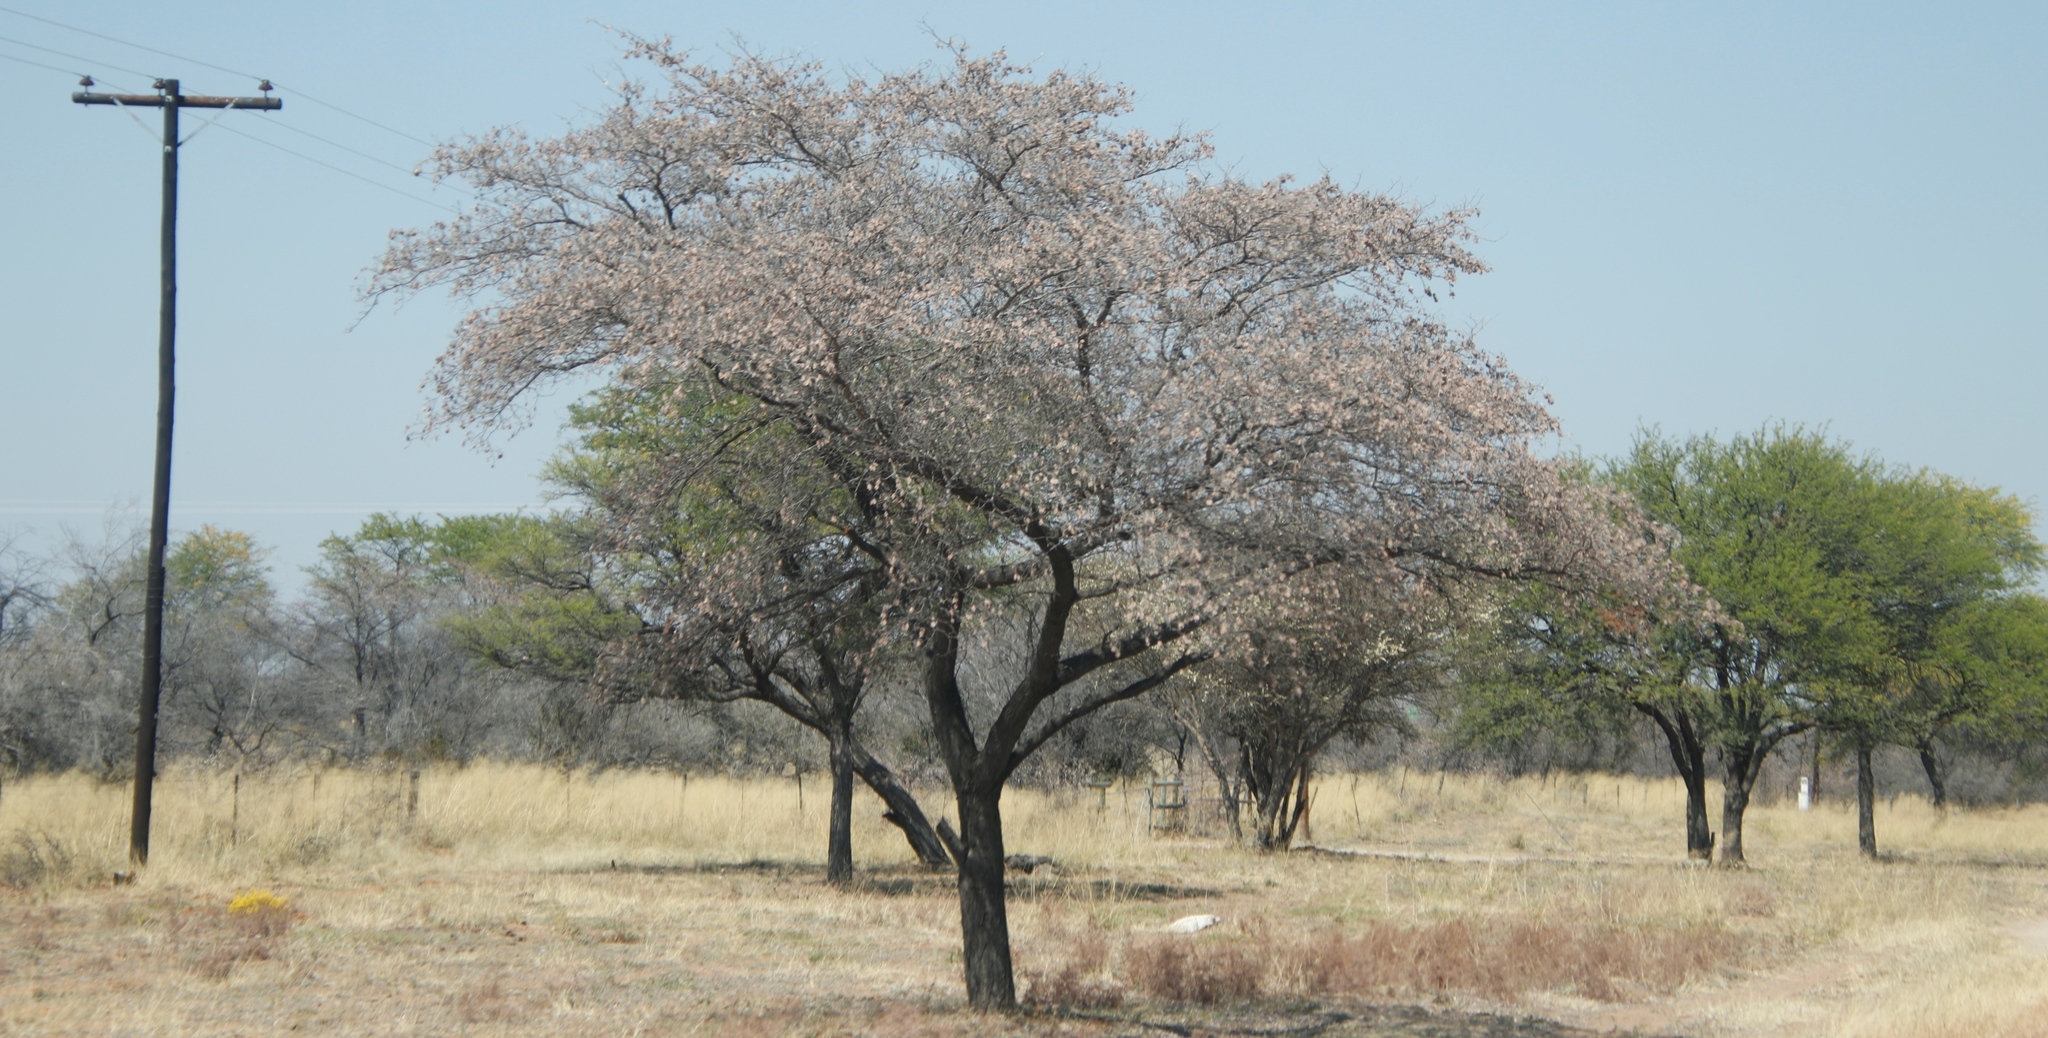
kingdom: Plantae
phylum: Tracheophyta
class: Magnoliopsida
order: Myrtales
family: Combretaceae
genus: Terminalia
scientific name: Terminalia sericea
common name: Clusterleaf
